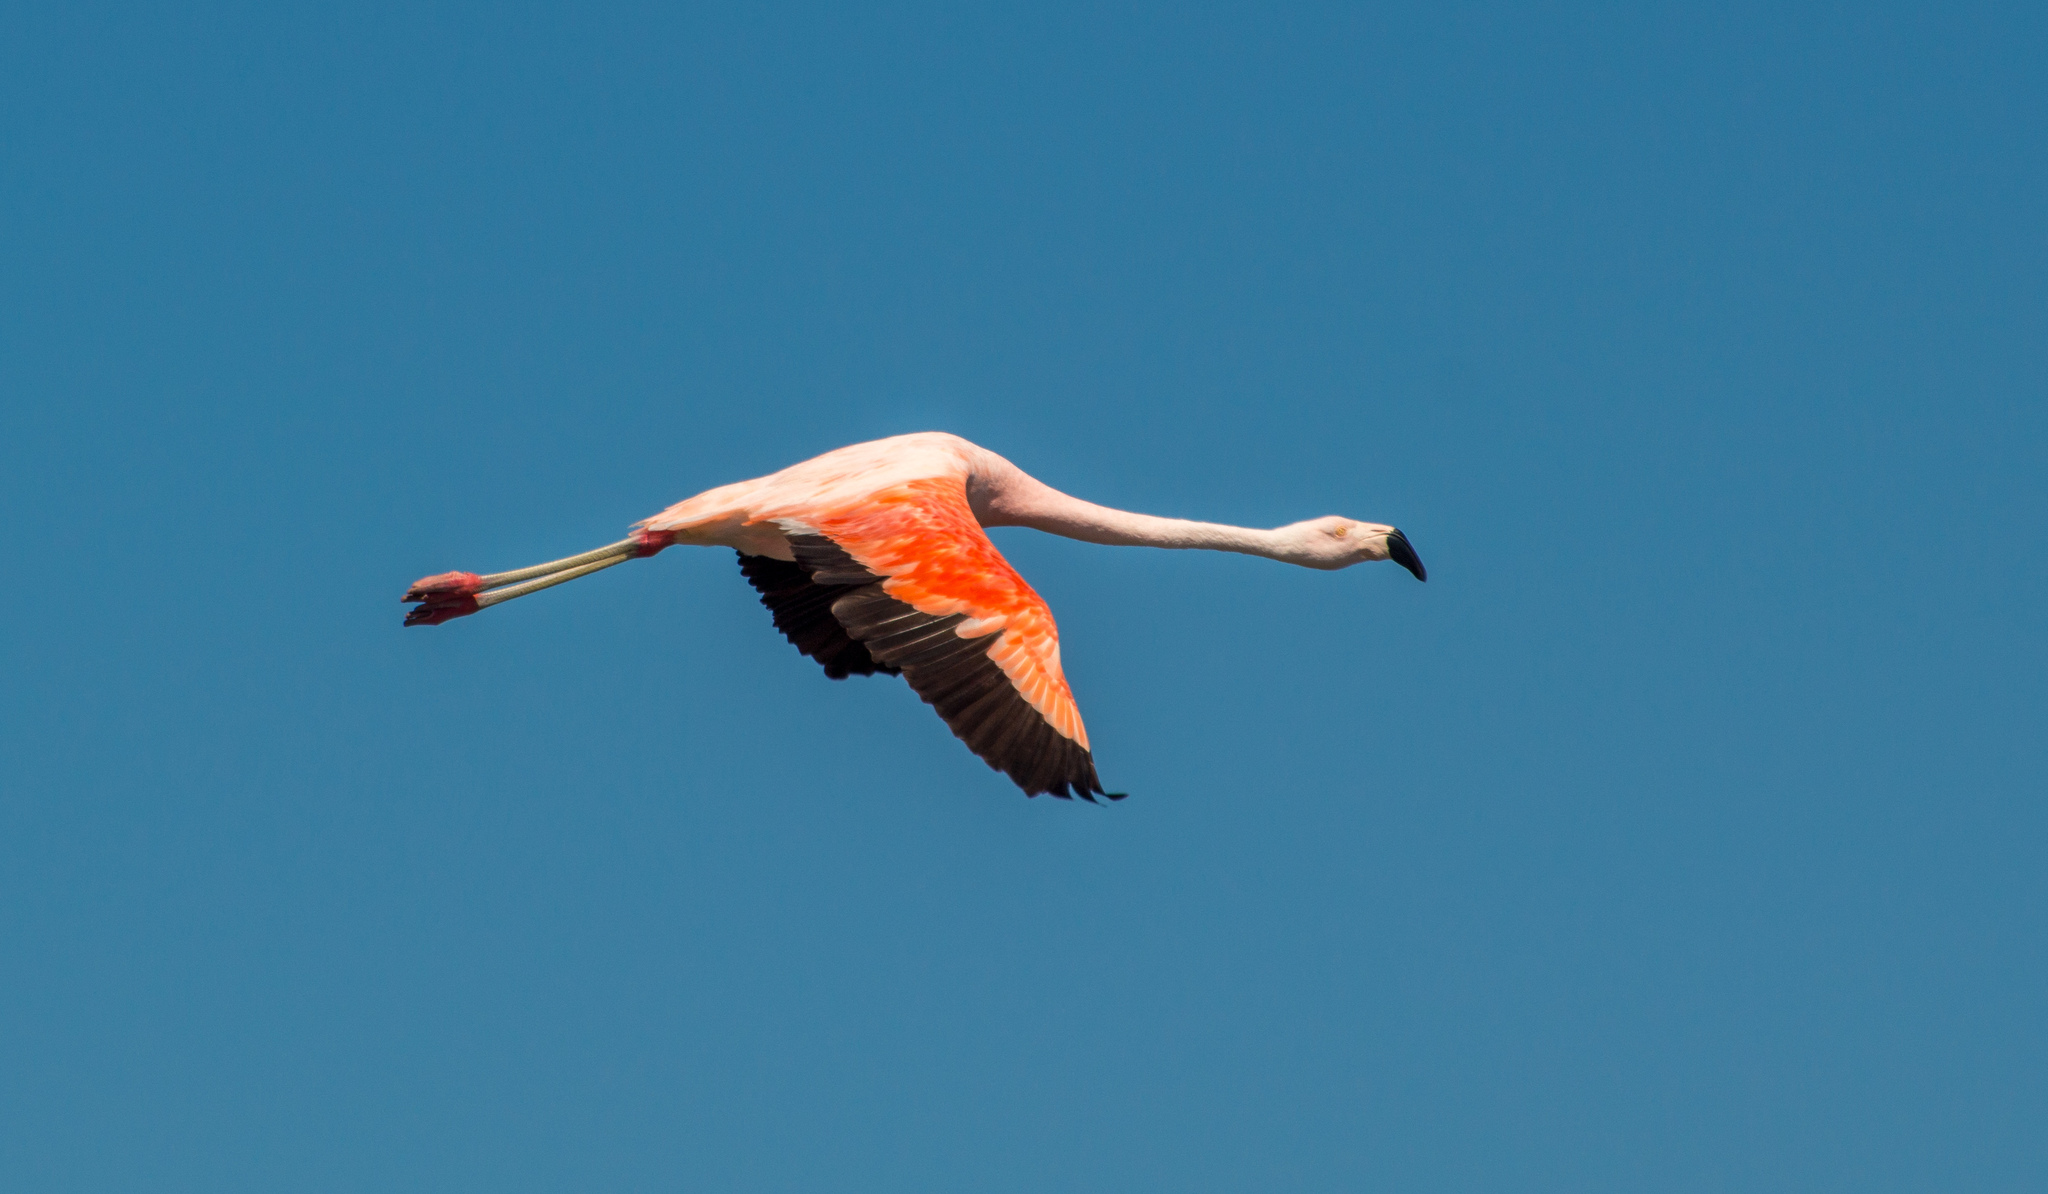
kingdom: Animalia
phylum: Chordata
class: Aves
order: Phoenicopteriformes
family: Phoenicopteridae
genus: Phoenicopterus
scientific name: Phoenicopterus chilensis
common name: Chilean flamingo
